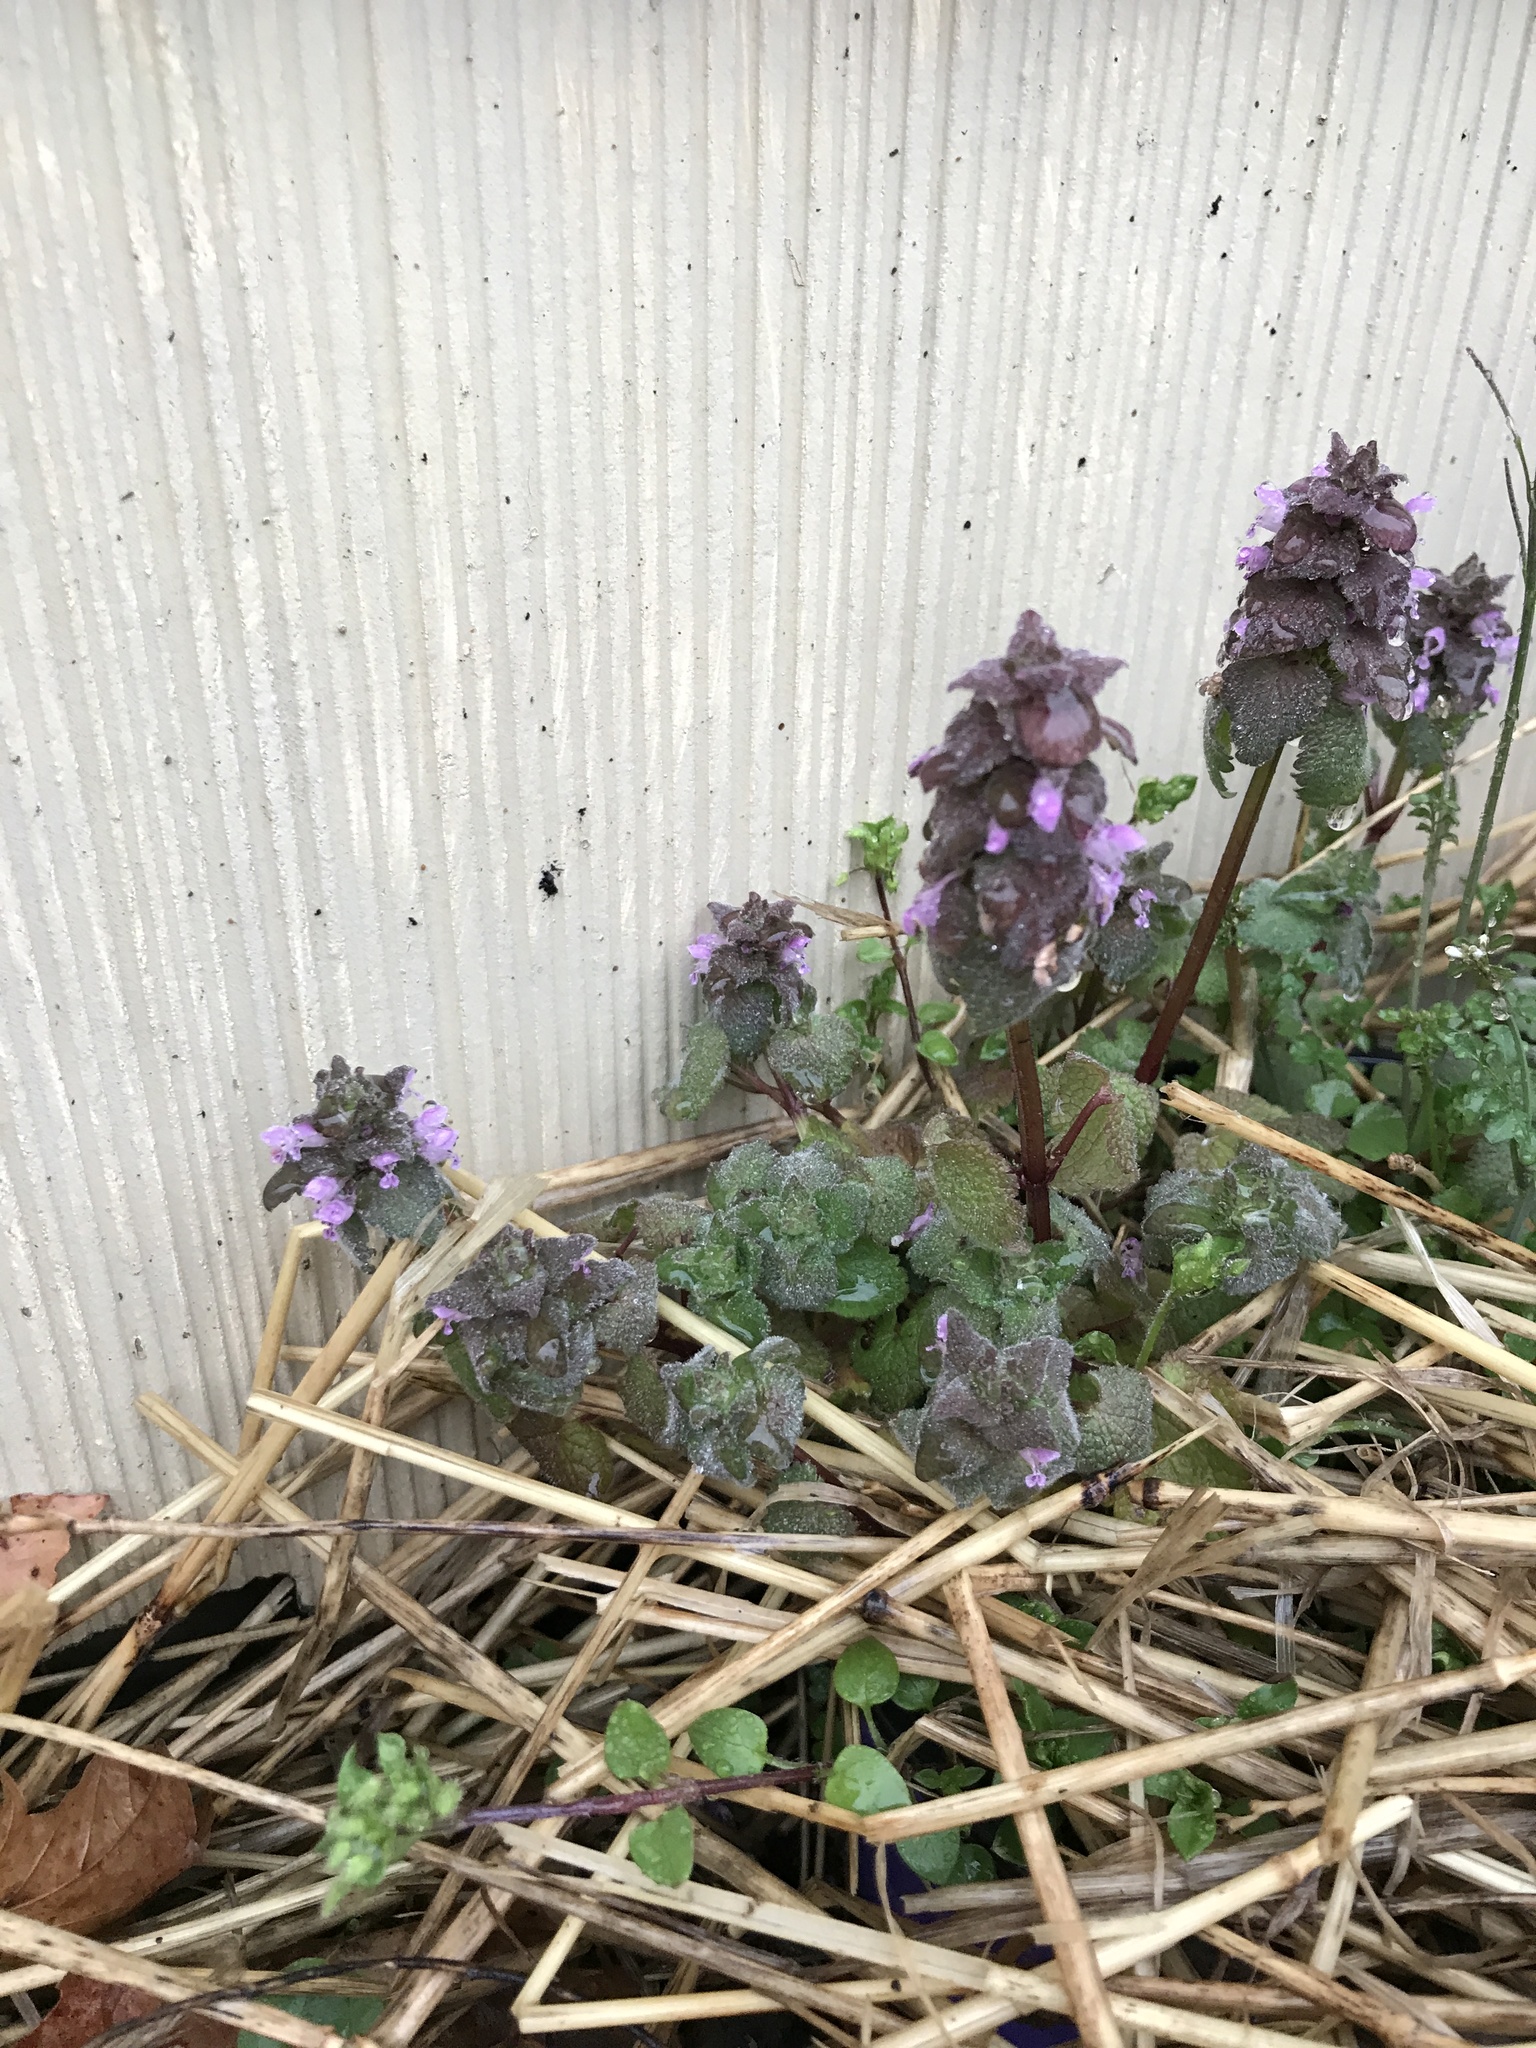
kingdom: Plantae
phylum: Tracheophyta
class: Magnoliopsida
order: Lamiales
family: Lamiaceae
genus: Lamium
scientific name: Lamium purpureum
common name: Red dead-nettle
